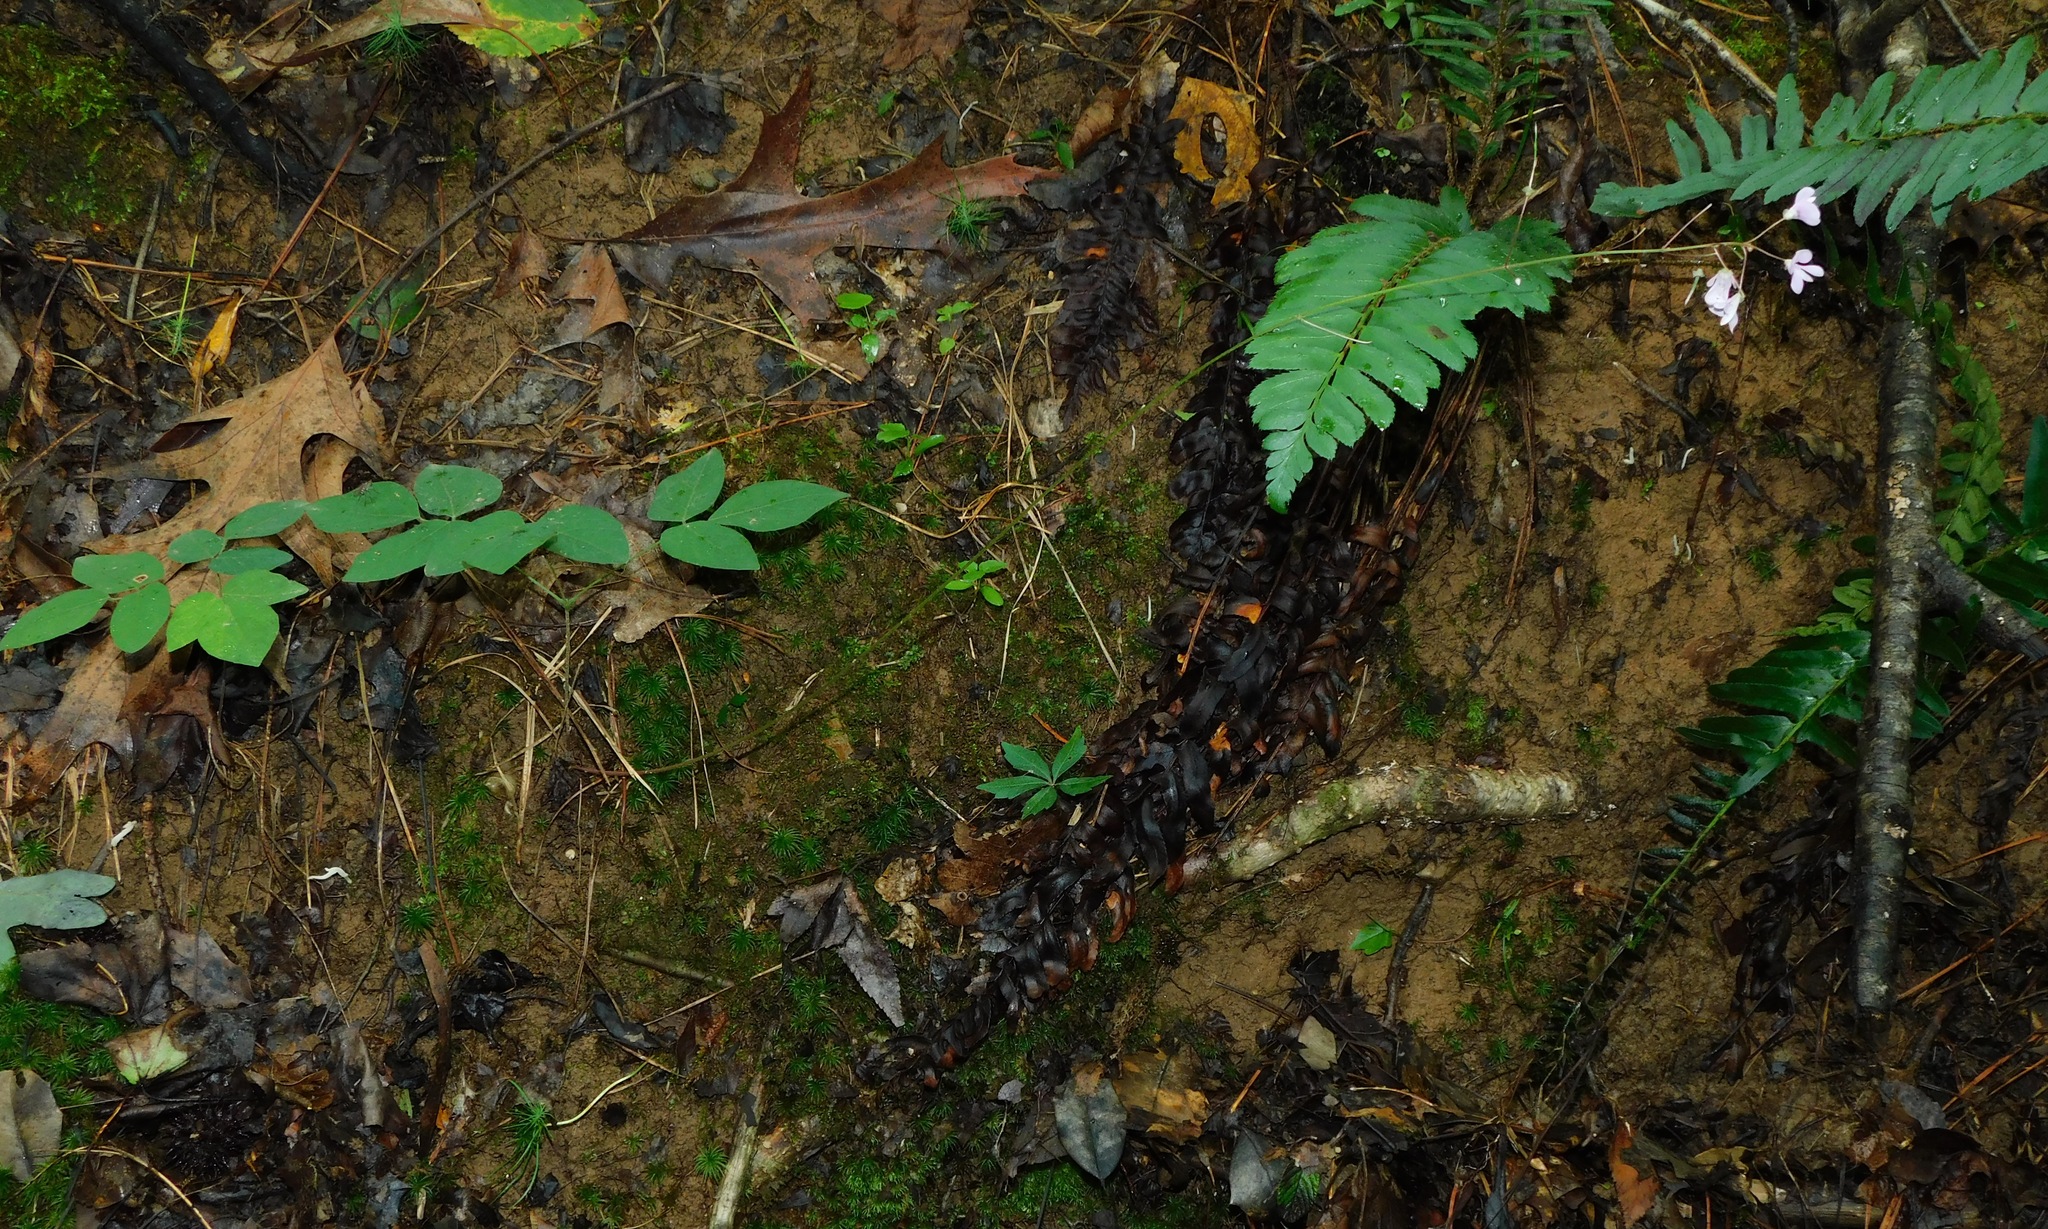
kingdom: Plantae
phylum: Tracheophyta
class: Magnoliopsida
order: Fabales
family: Fabaceae
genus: Hylodesmum
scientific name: Hylodesmum nudiflorum
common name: Bare-stemmed tick-trefoil
